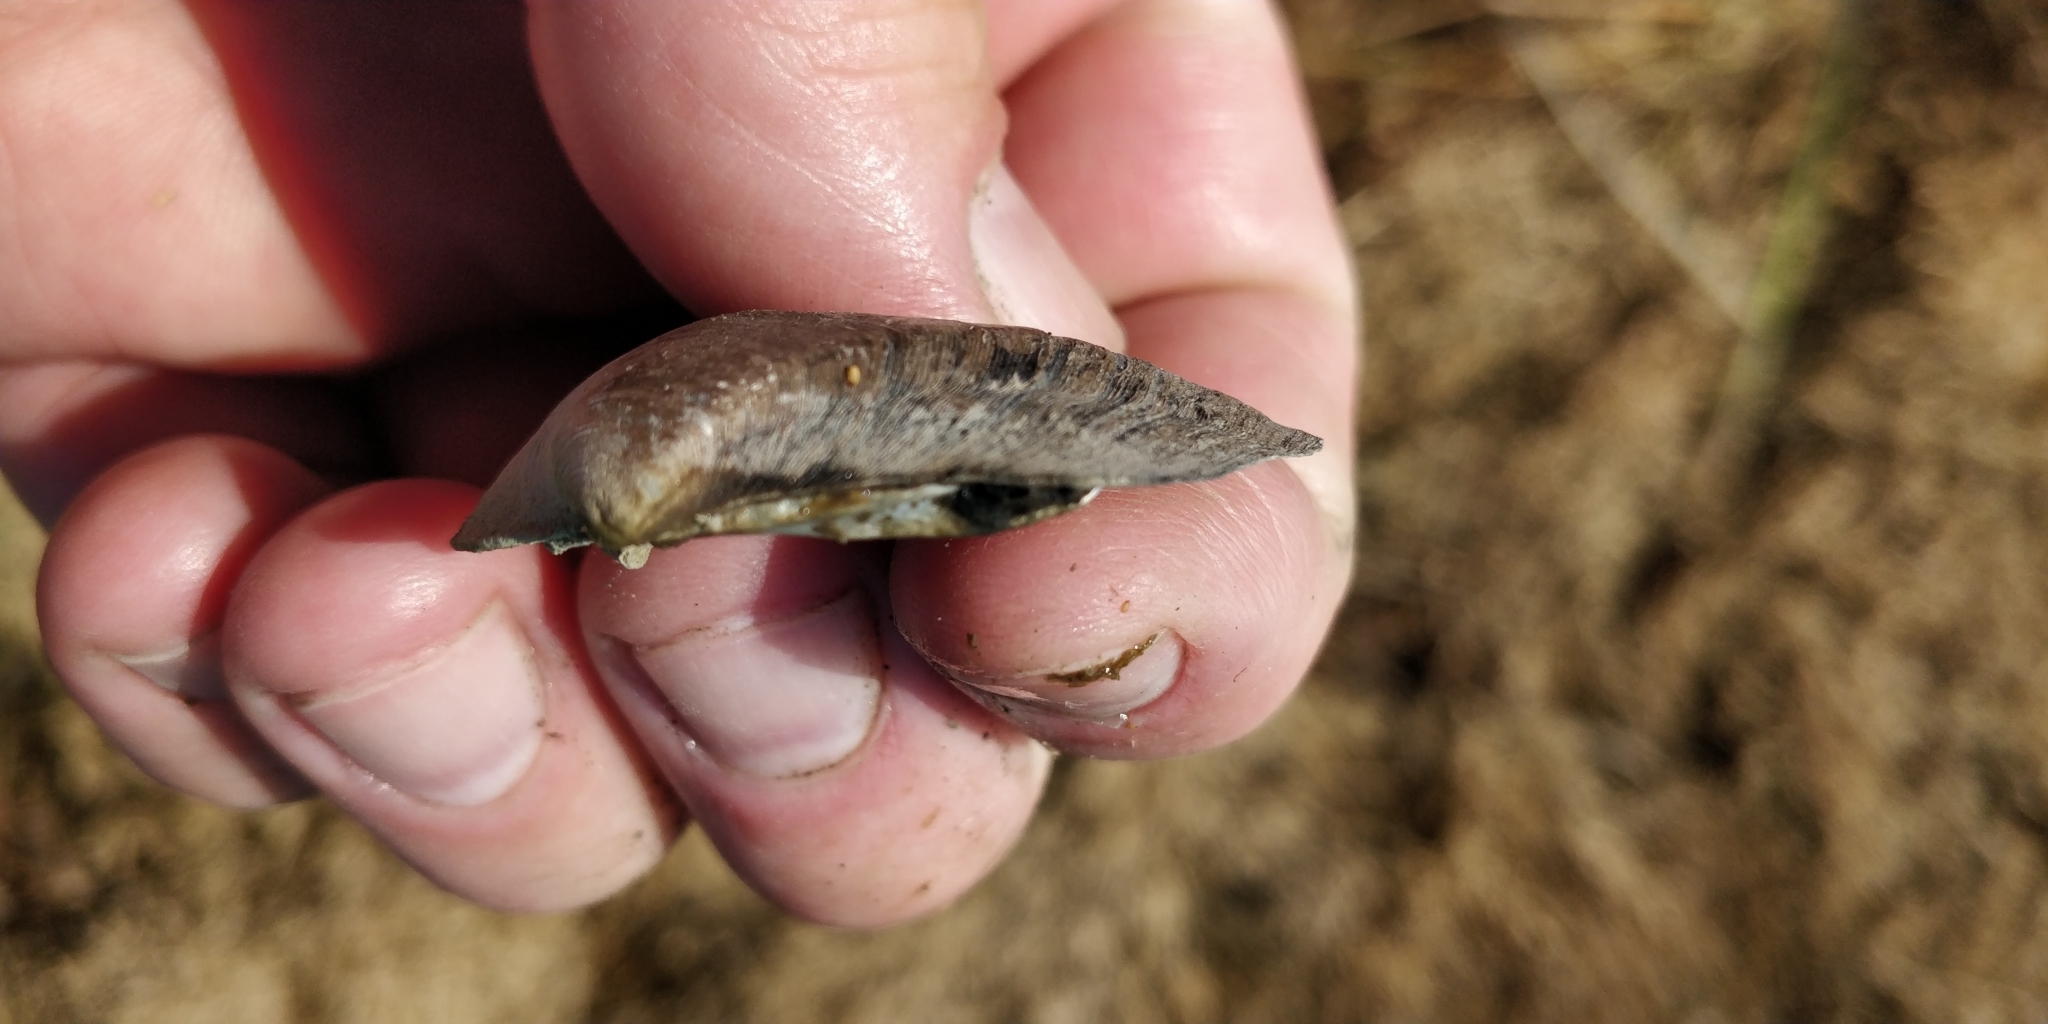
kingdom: Animalia
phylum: Mollusca
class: Bivalvia
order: Unionida
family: Unionidae
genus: Fusconaia
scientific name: Fusconaia flava
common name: Wabash pigtoe
